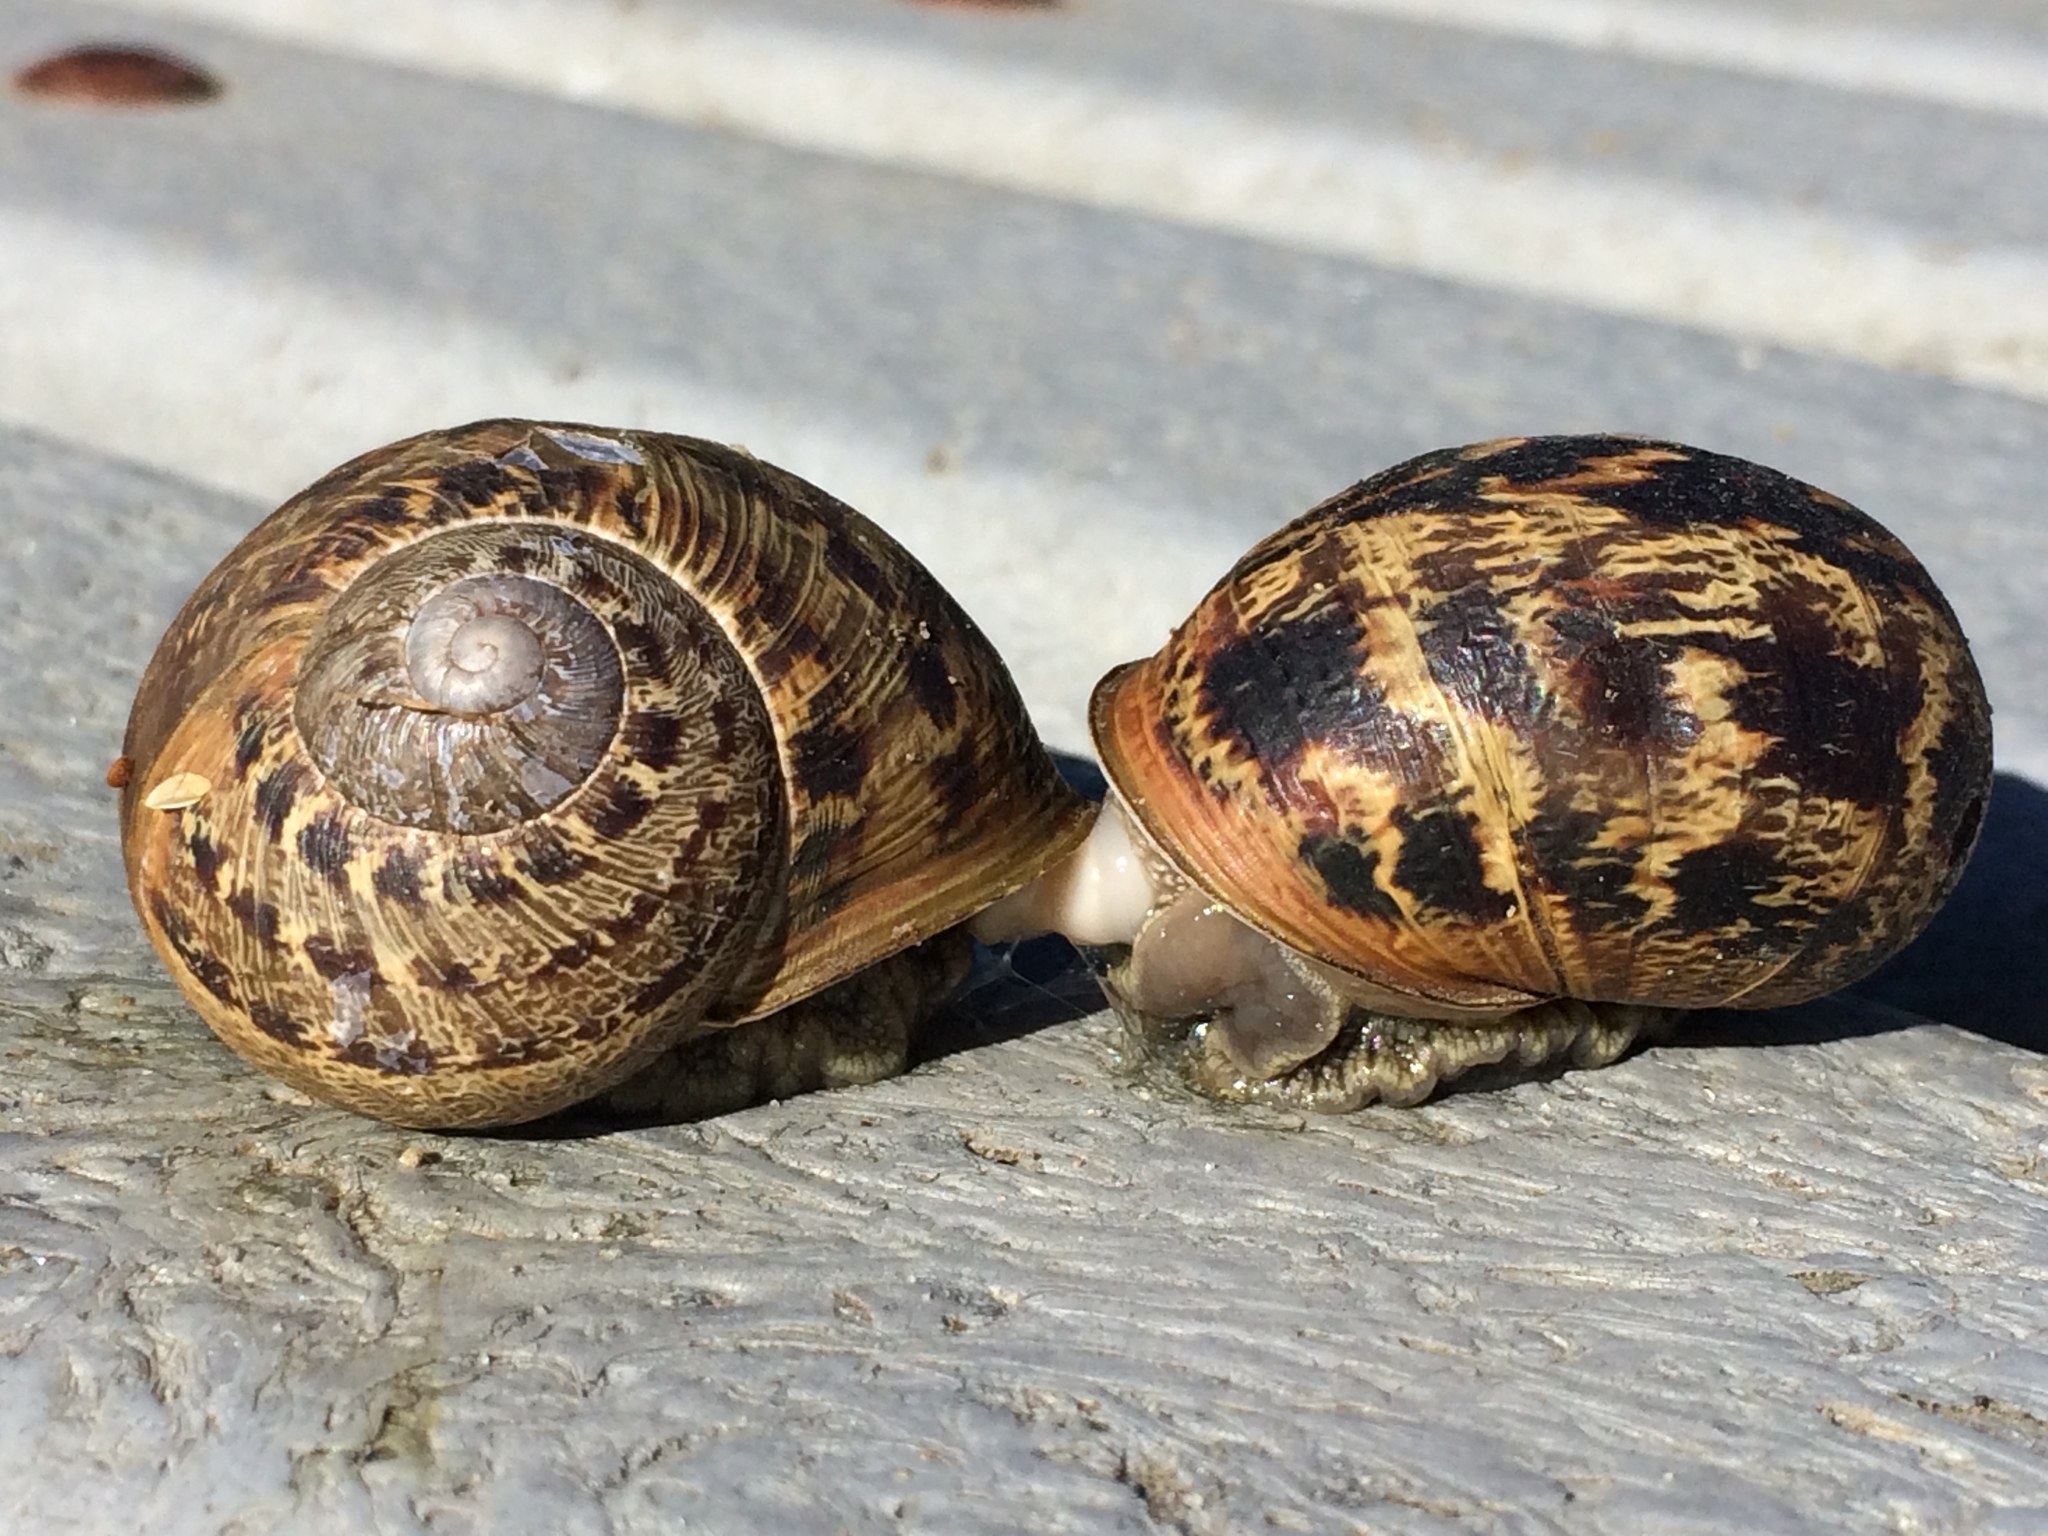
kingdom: Animalia
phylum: Mollusca
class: Gastropoda
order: Stylommatophora
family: Helicidae
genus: Cornu
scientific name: Cornu aspersum
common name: Brown garden snail
